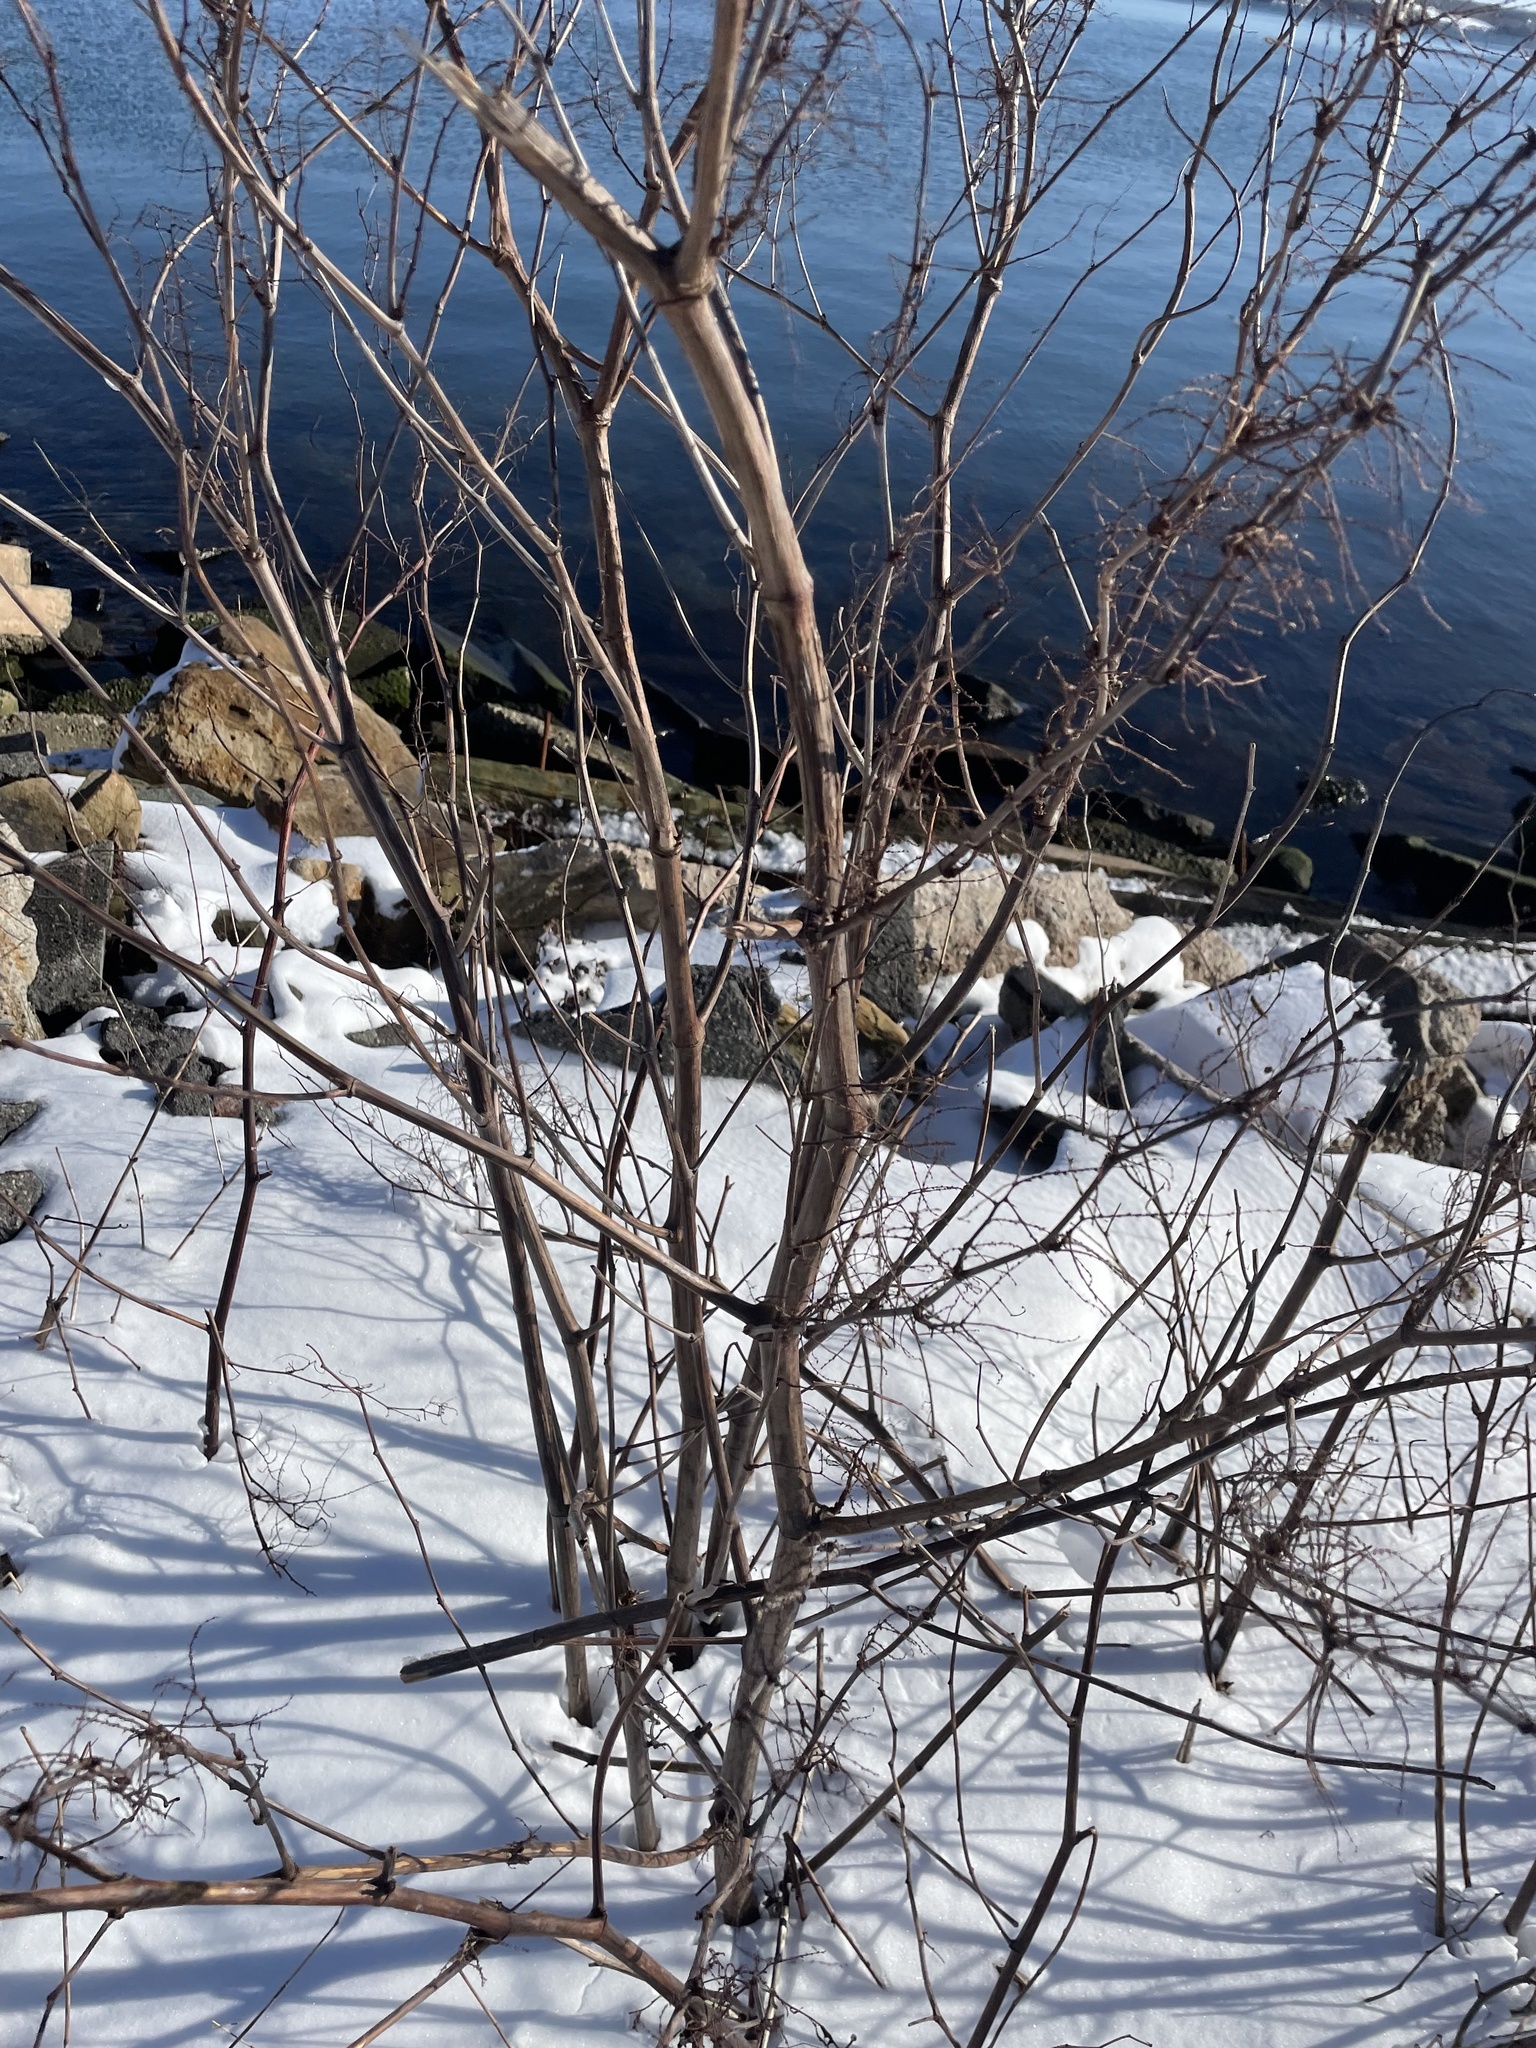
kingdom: Plantae
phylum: Tracheophyta
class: Magnoliopsida
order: Caryophyllales
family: Polygonaceae
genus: Reynoutria
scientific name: Reynoutria japonica
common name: Japanese knotweed
